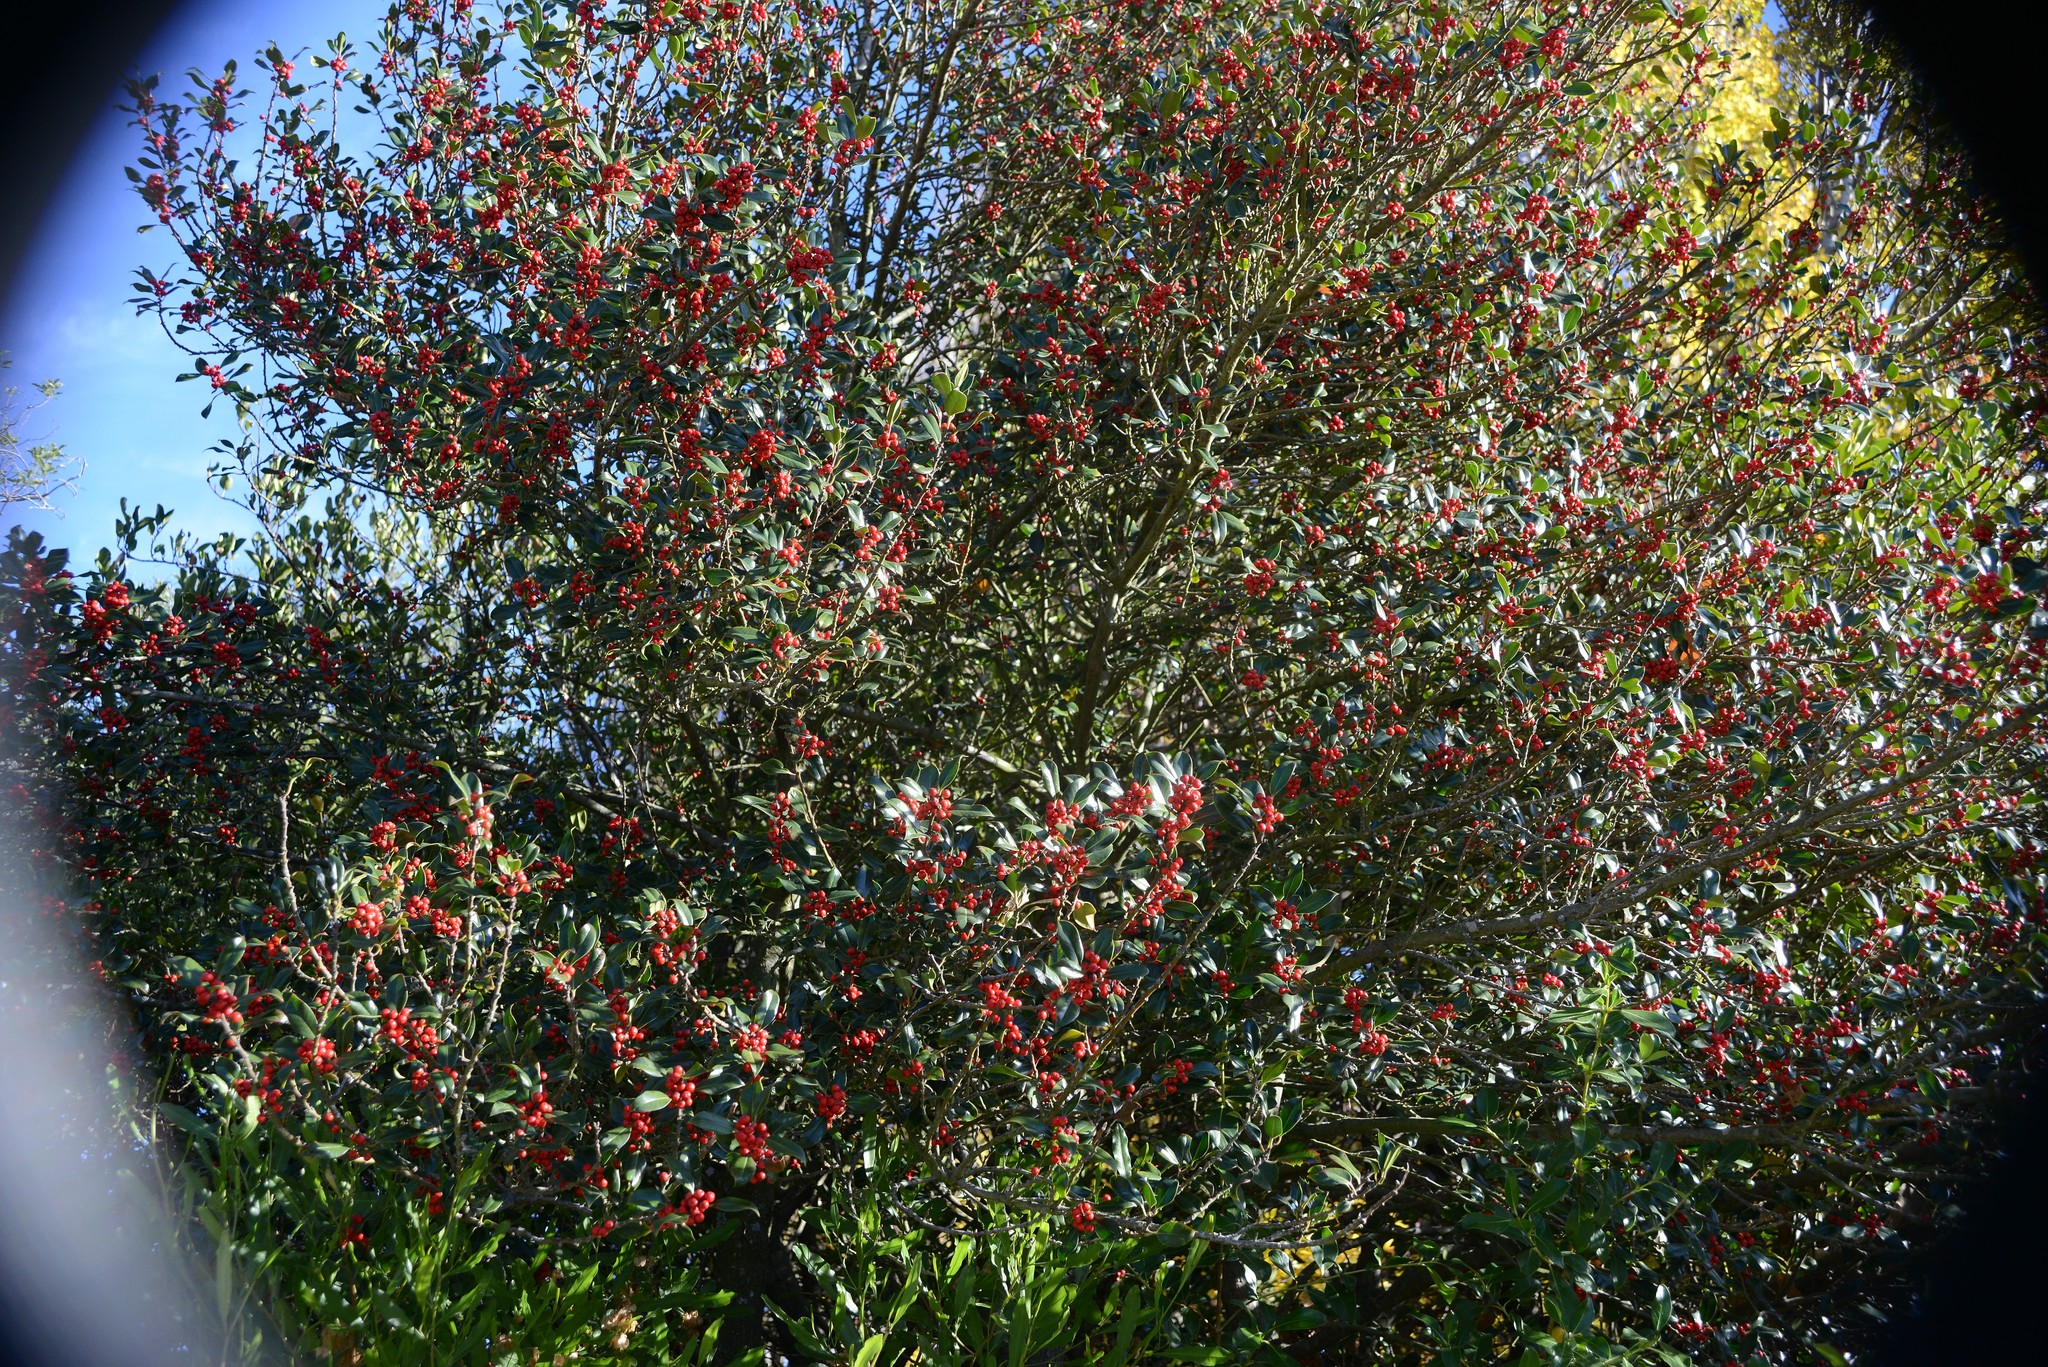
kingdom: Plantae
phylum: Tracheophyta
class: Magnoliopsida
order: Aquifoliales
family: Aquifoliaceae
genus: Ilex
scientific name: Ilex aquifolium
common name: English holly
